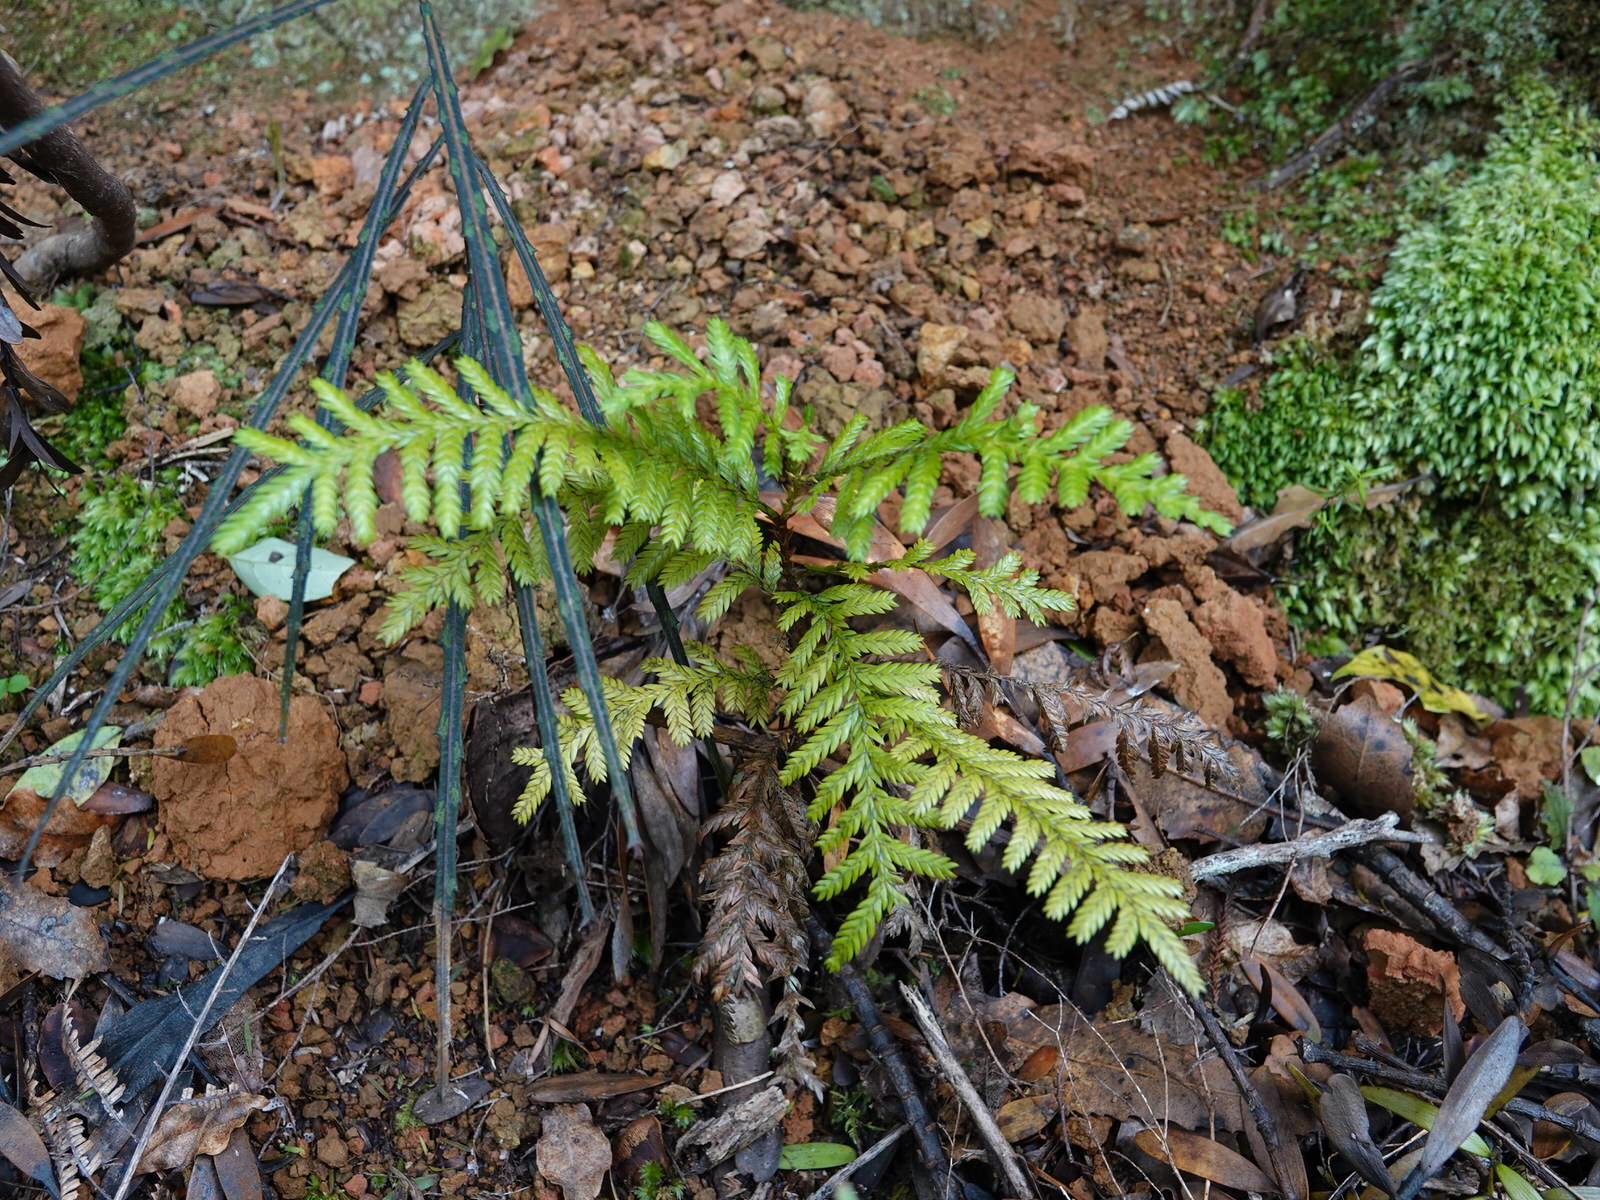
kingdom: Plantae
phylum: Tracheophyta
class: Pinopsida
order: Pinales
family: Cupressaceae
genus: Libocedrus
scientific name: Libocedrus plumosa
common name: New zealand cedar
